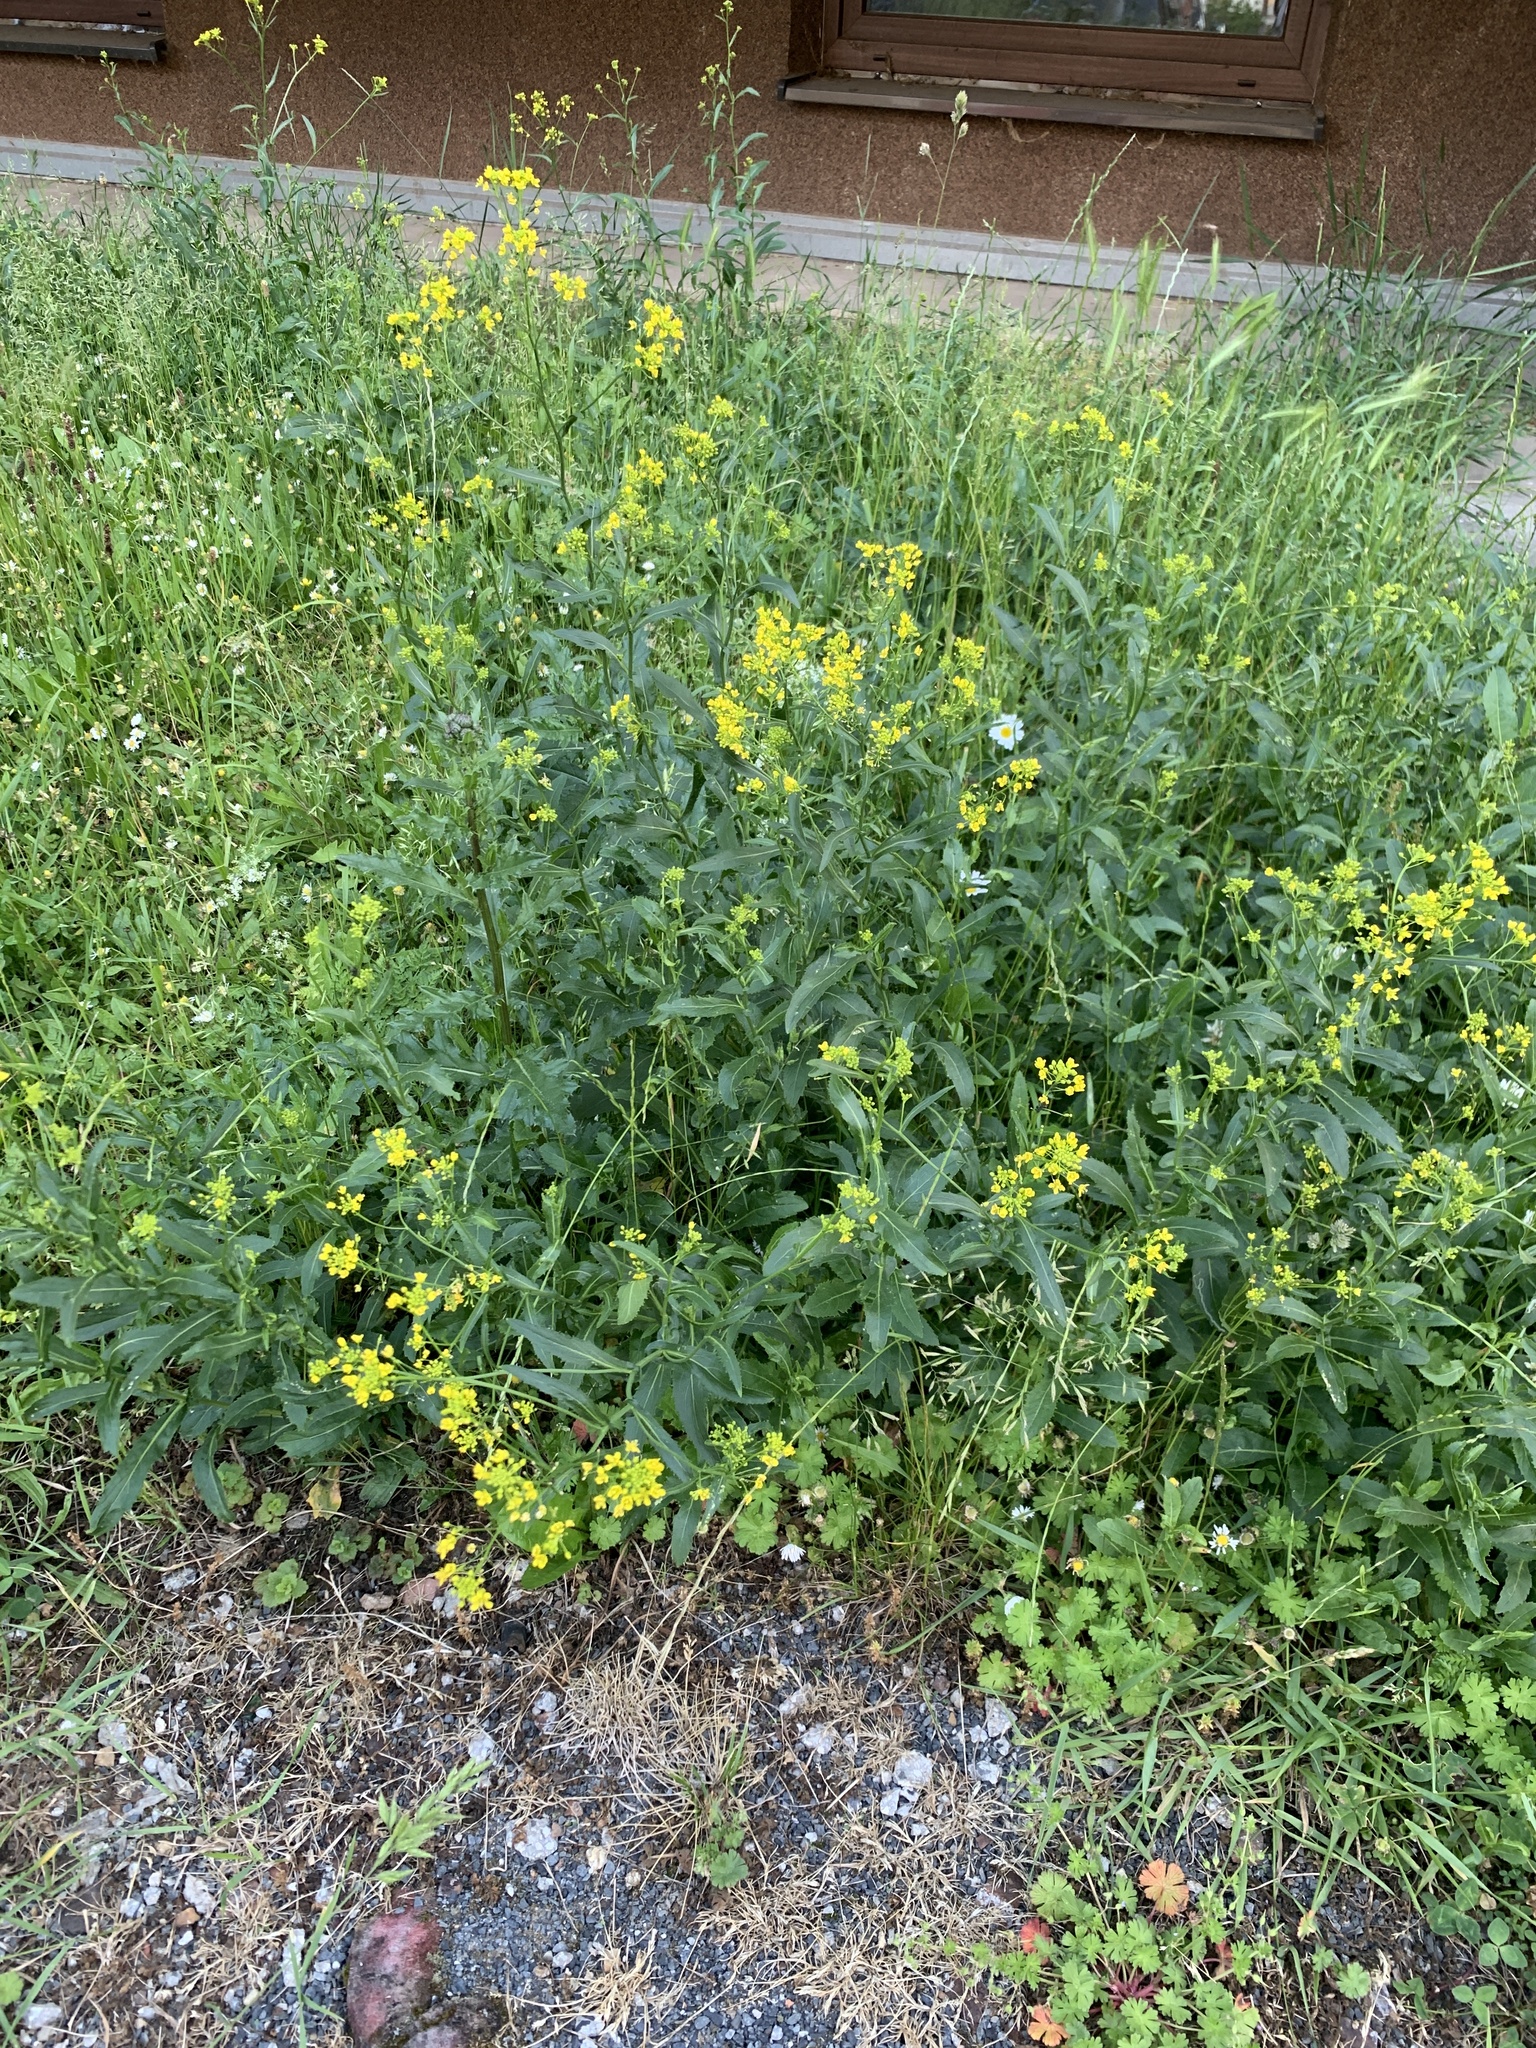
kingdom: Plantae
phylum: Tracheophyta
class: Magnoliopsida
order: Brassicales
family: Brassicaceae
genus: Rorippa
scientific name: Rorippa austriaca
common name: Austrian yellow-cress
